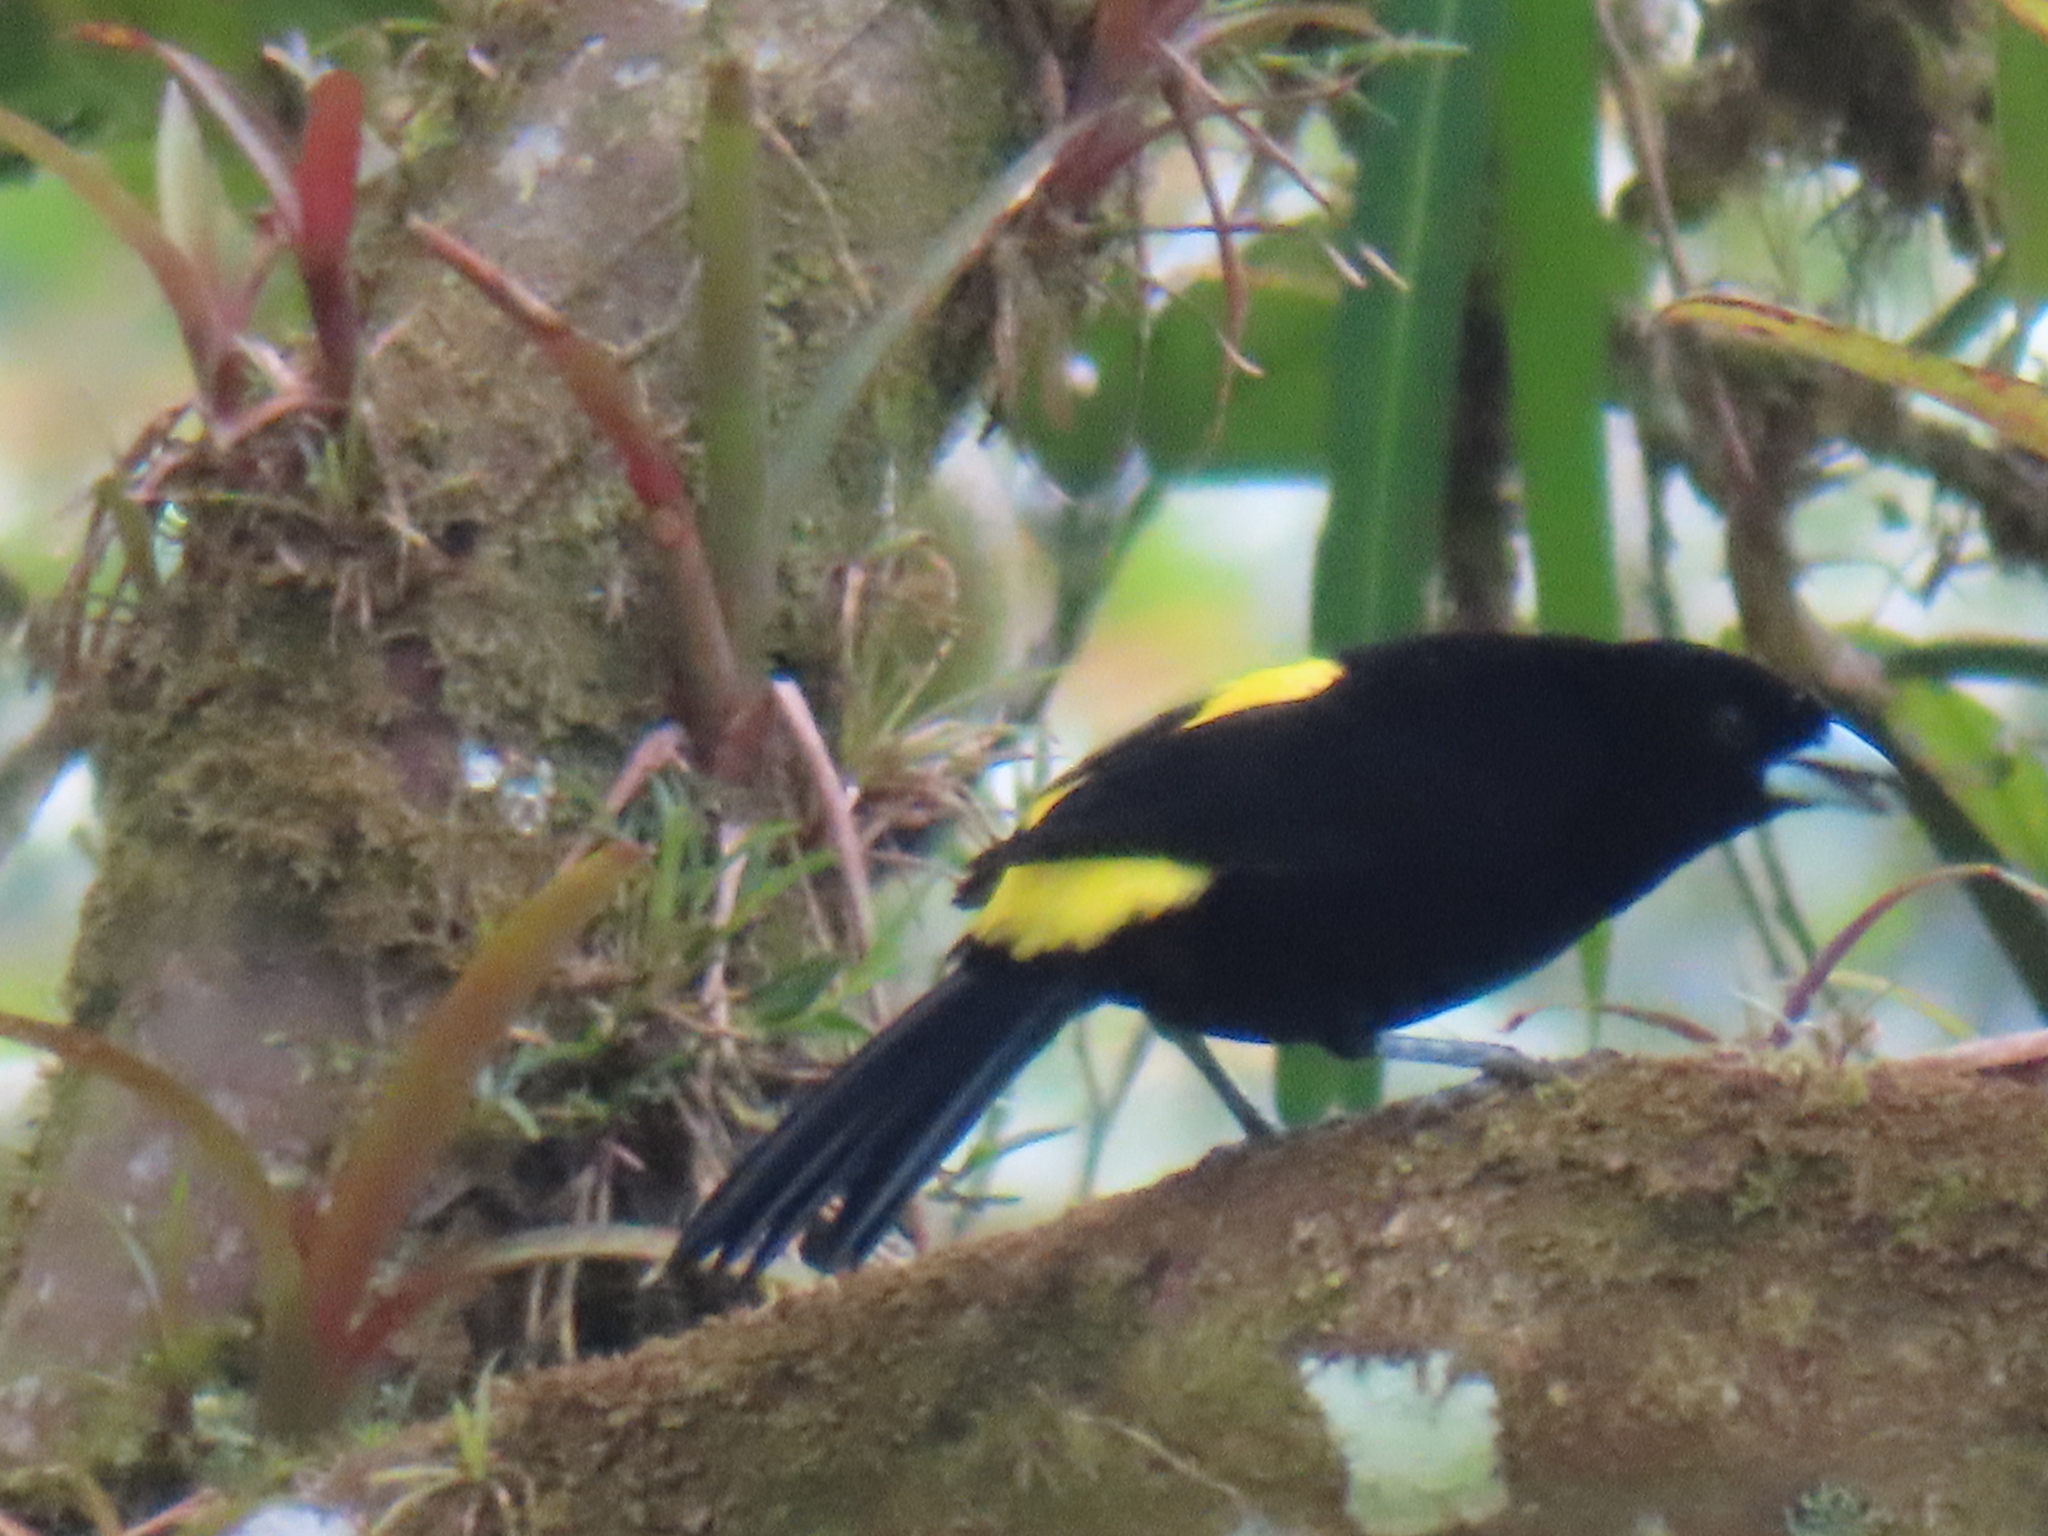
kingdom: Animalia
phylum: Chordata
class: Aves
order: Passeriformes
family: Thraupidae
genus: Ramphocelus
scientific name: Ramphocelus flammigerus
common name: Flame-rumped tanager
